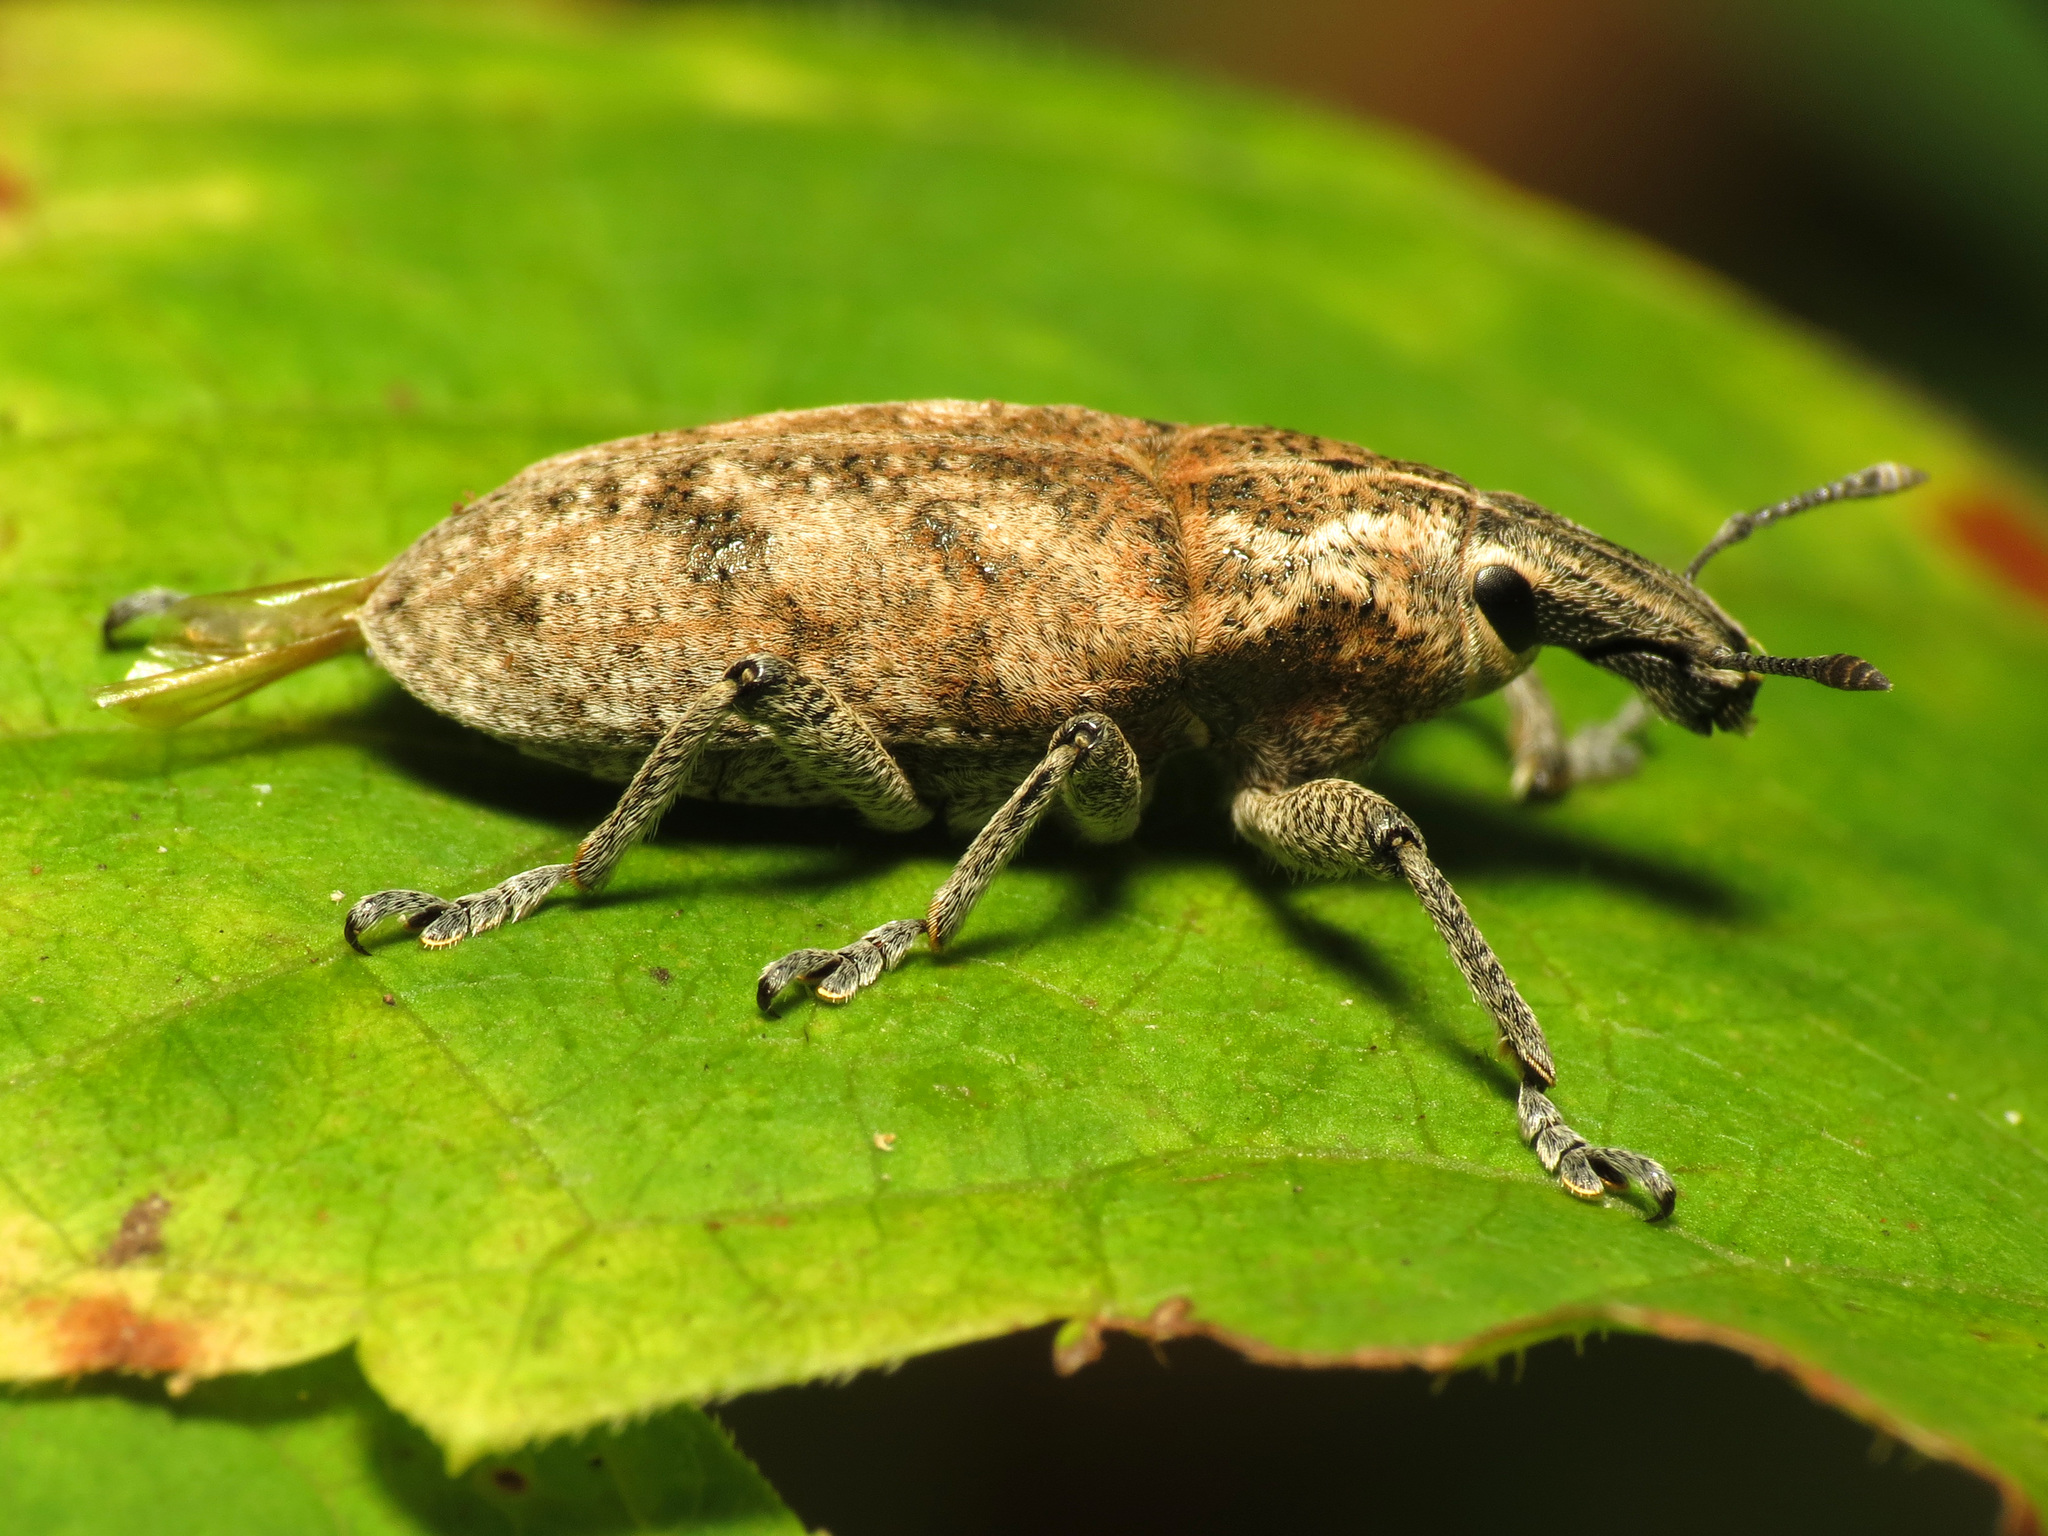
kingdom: Animalia
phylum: Arthropoda
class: Insecta
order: Coleoptera
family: Curculionidae
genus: Cleonis
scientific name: Cleonis pigra
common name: Large thistle weevil
